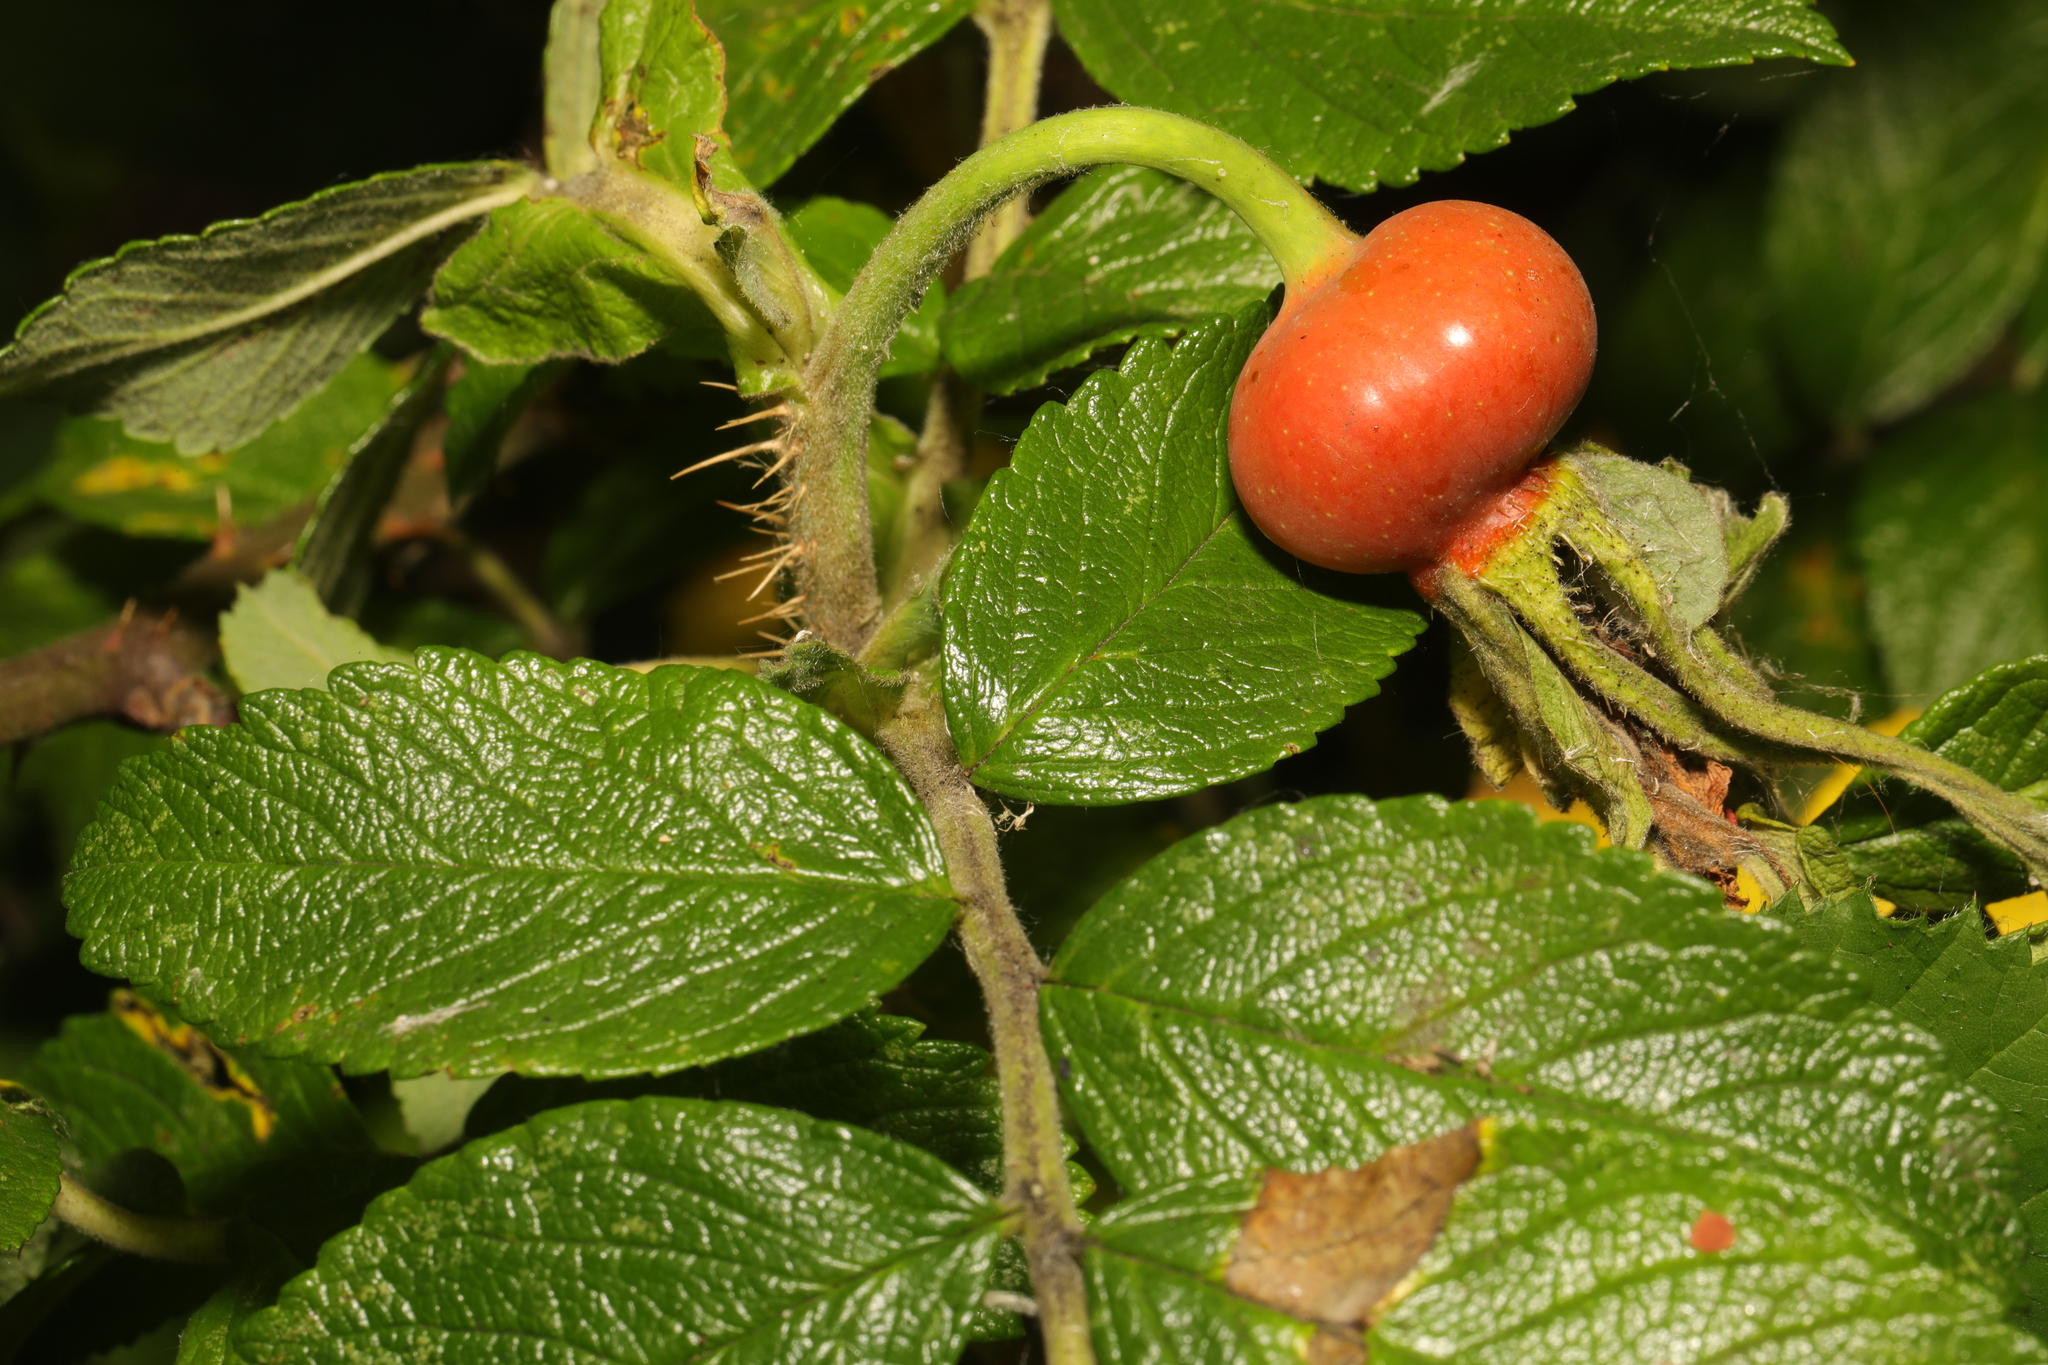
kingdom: Plantae
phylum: Tracheophyta
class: Magnoliopsida
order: Rosales
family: Rosaceae
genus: Rosa
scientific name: Rosa rugosa
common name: Japanese rose
